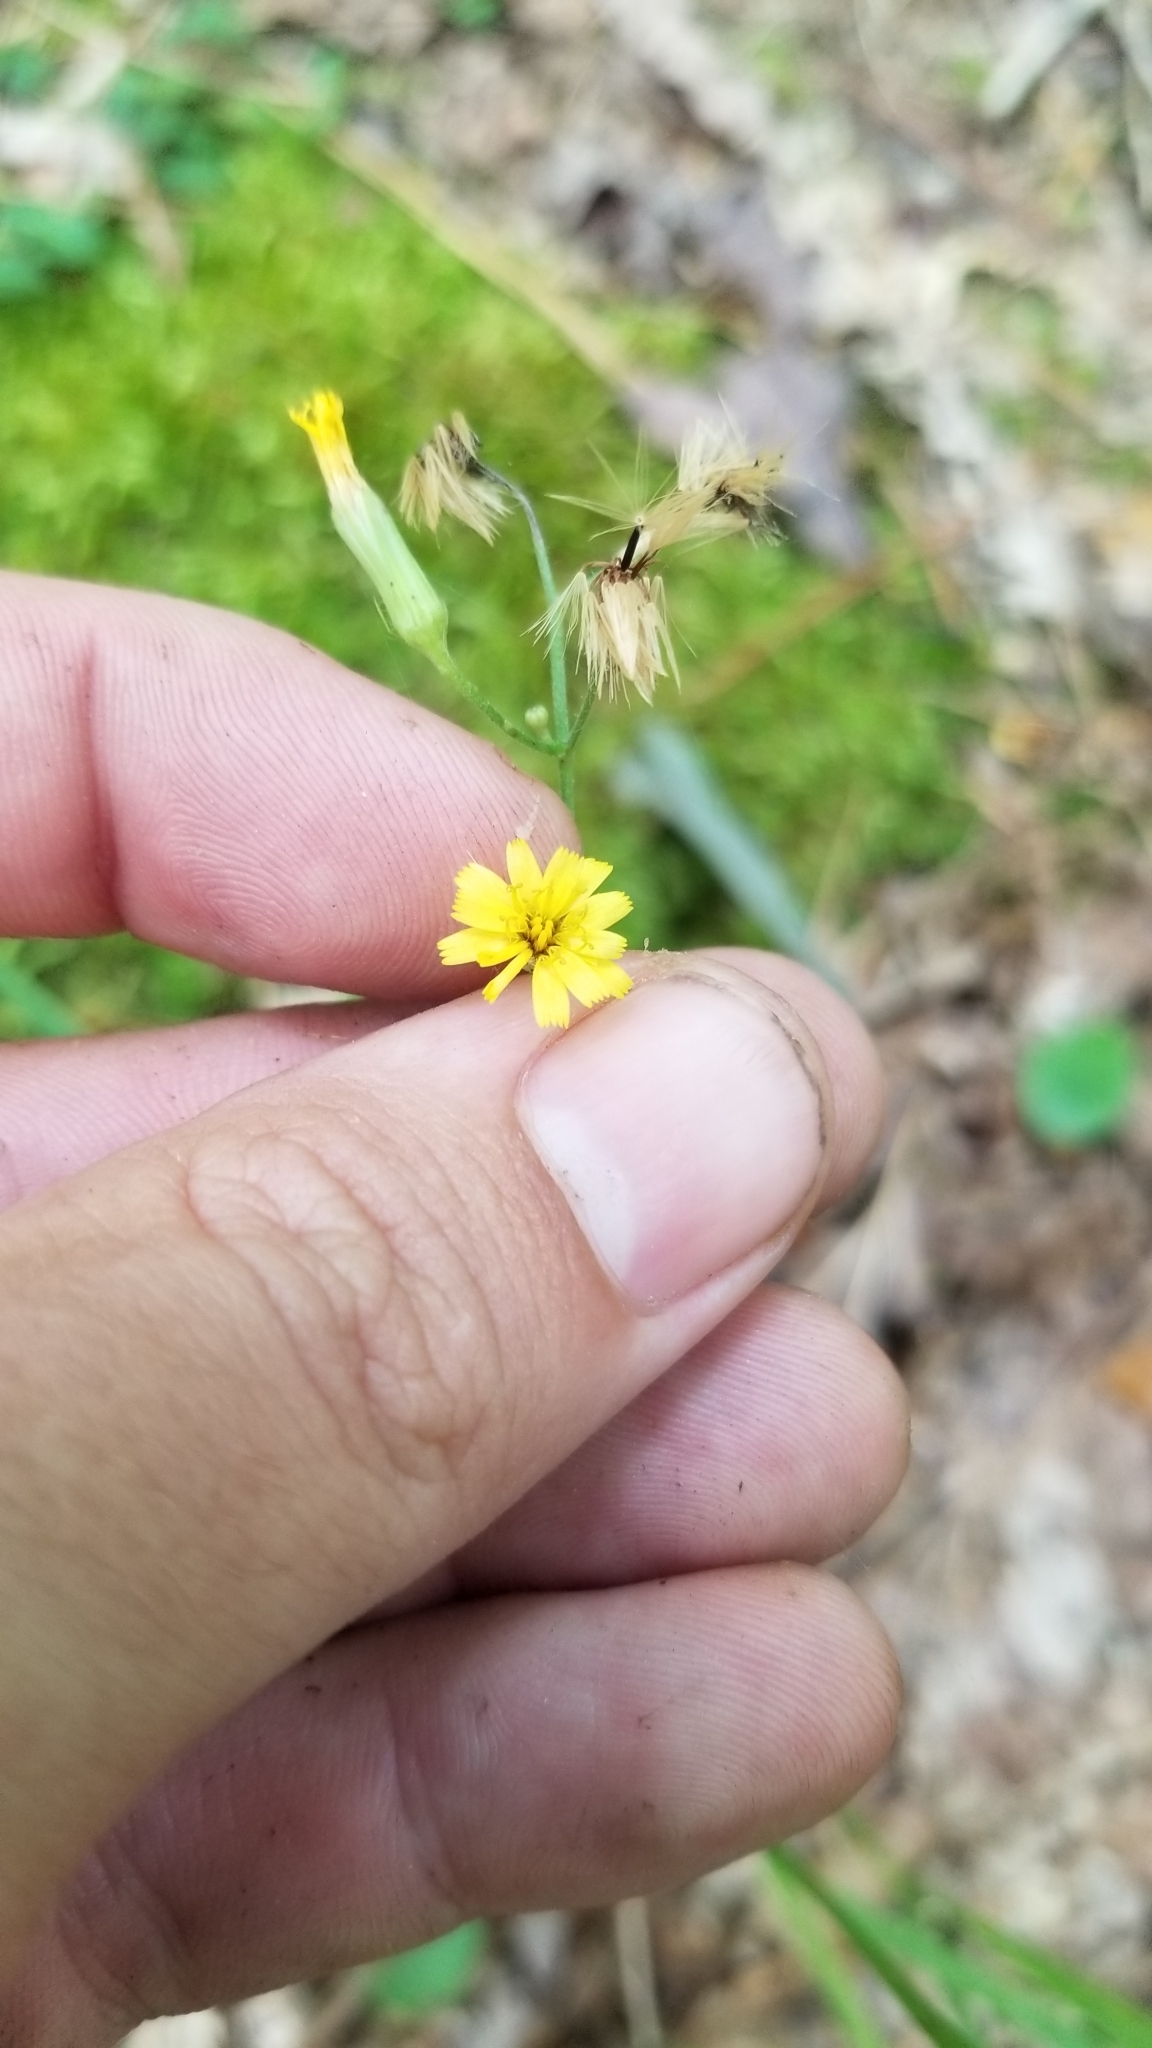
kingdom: Plantae
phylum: Tracheophyta
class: Magnoliopsida
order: Asterales
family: Asteraceae
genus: Hieracium
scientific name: Hieracium gronovii
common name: Beaked hawkweed
